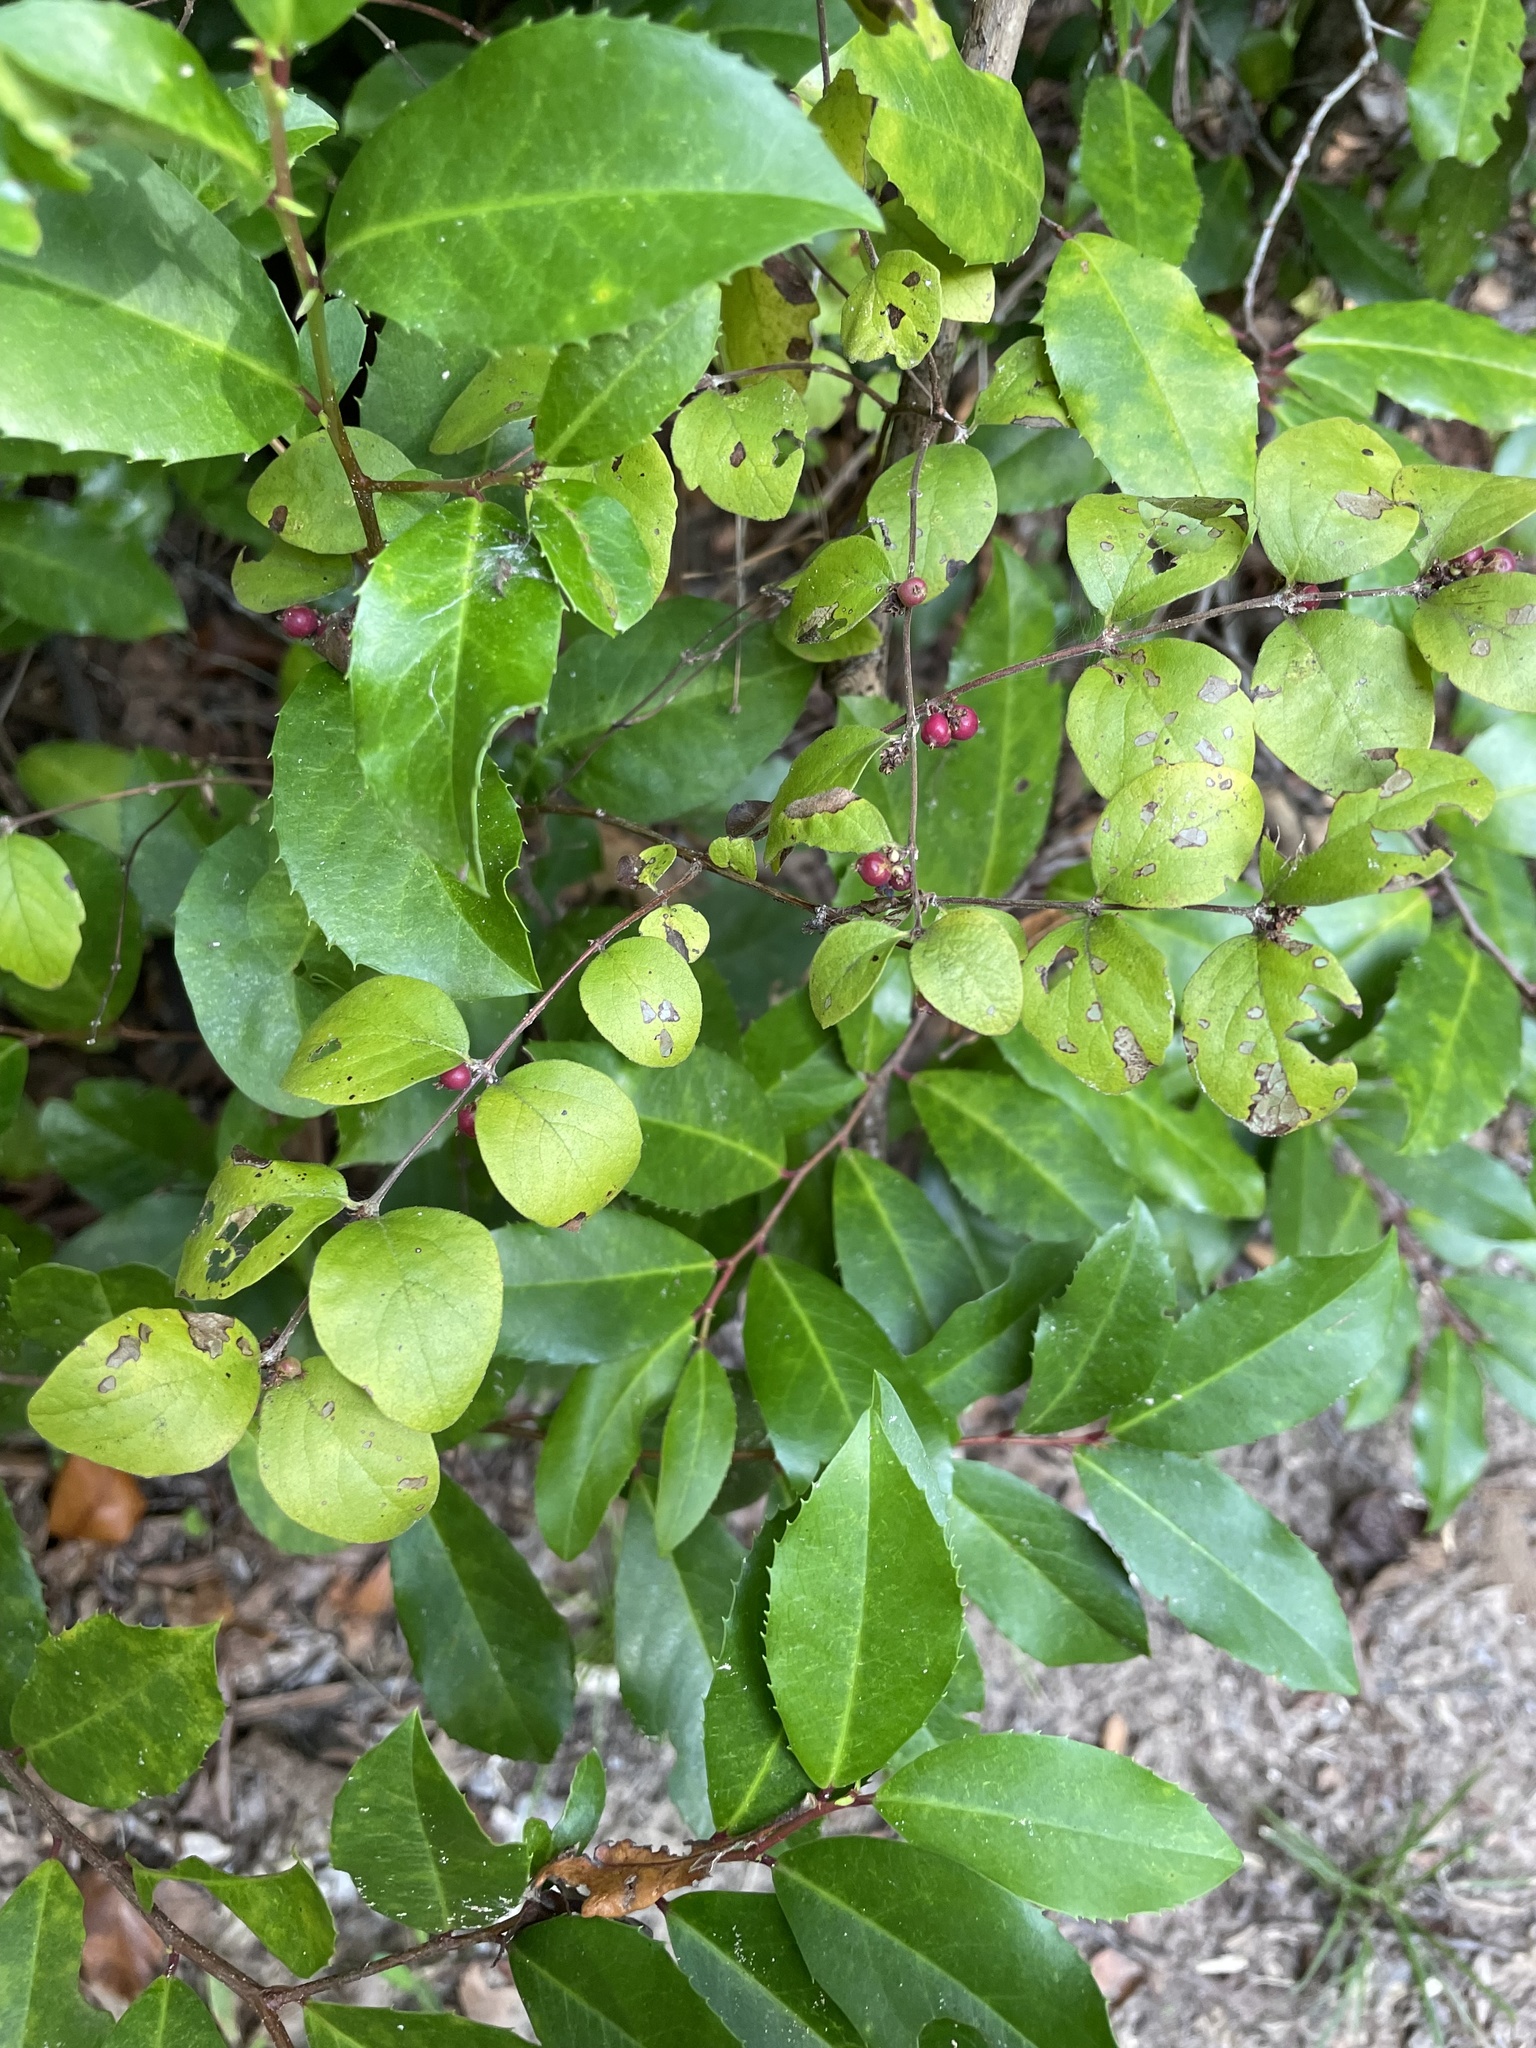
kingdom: Plantae
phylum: Tracheophyta
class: Magnoliopsida
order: Dipsacales
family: Caprifoliaceae
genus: Symphoricarpos
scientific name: Symphoricarpos orbiculatus
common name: Coralberry
